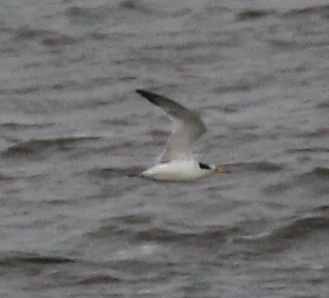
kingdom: Animalia
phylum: Chordata
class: Aves
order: Charadriiformes
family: Laridae
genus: Sternula
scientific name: Sternula superciliaris
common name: Yellow-billed tern
